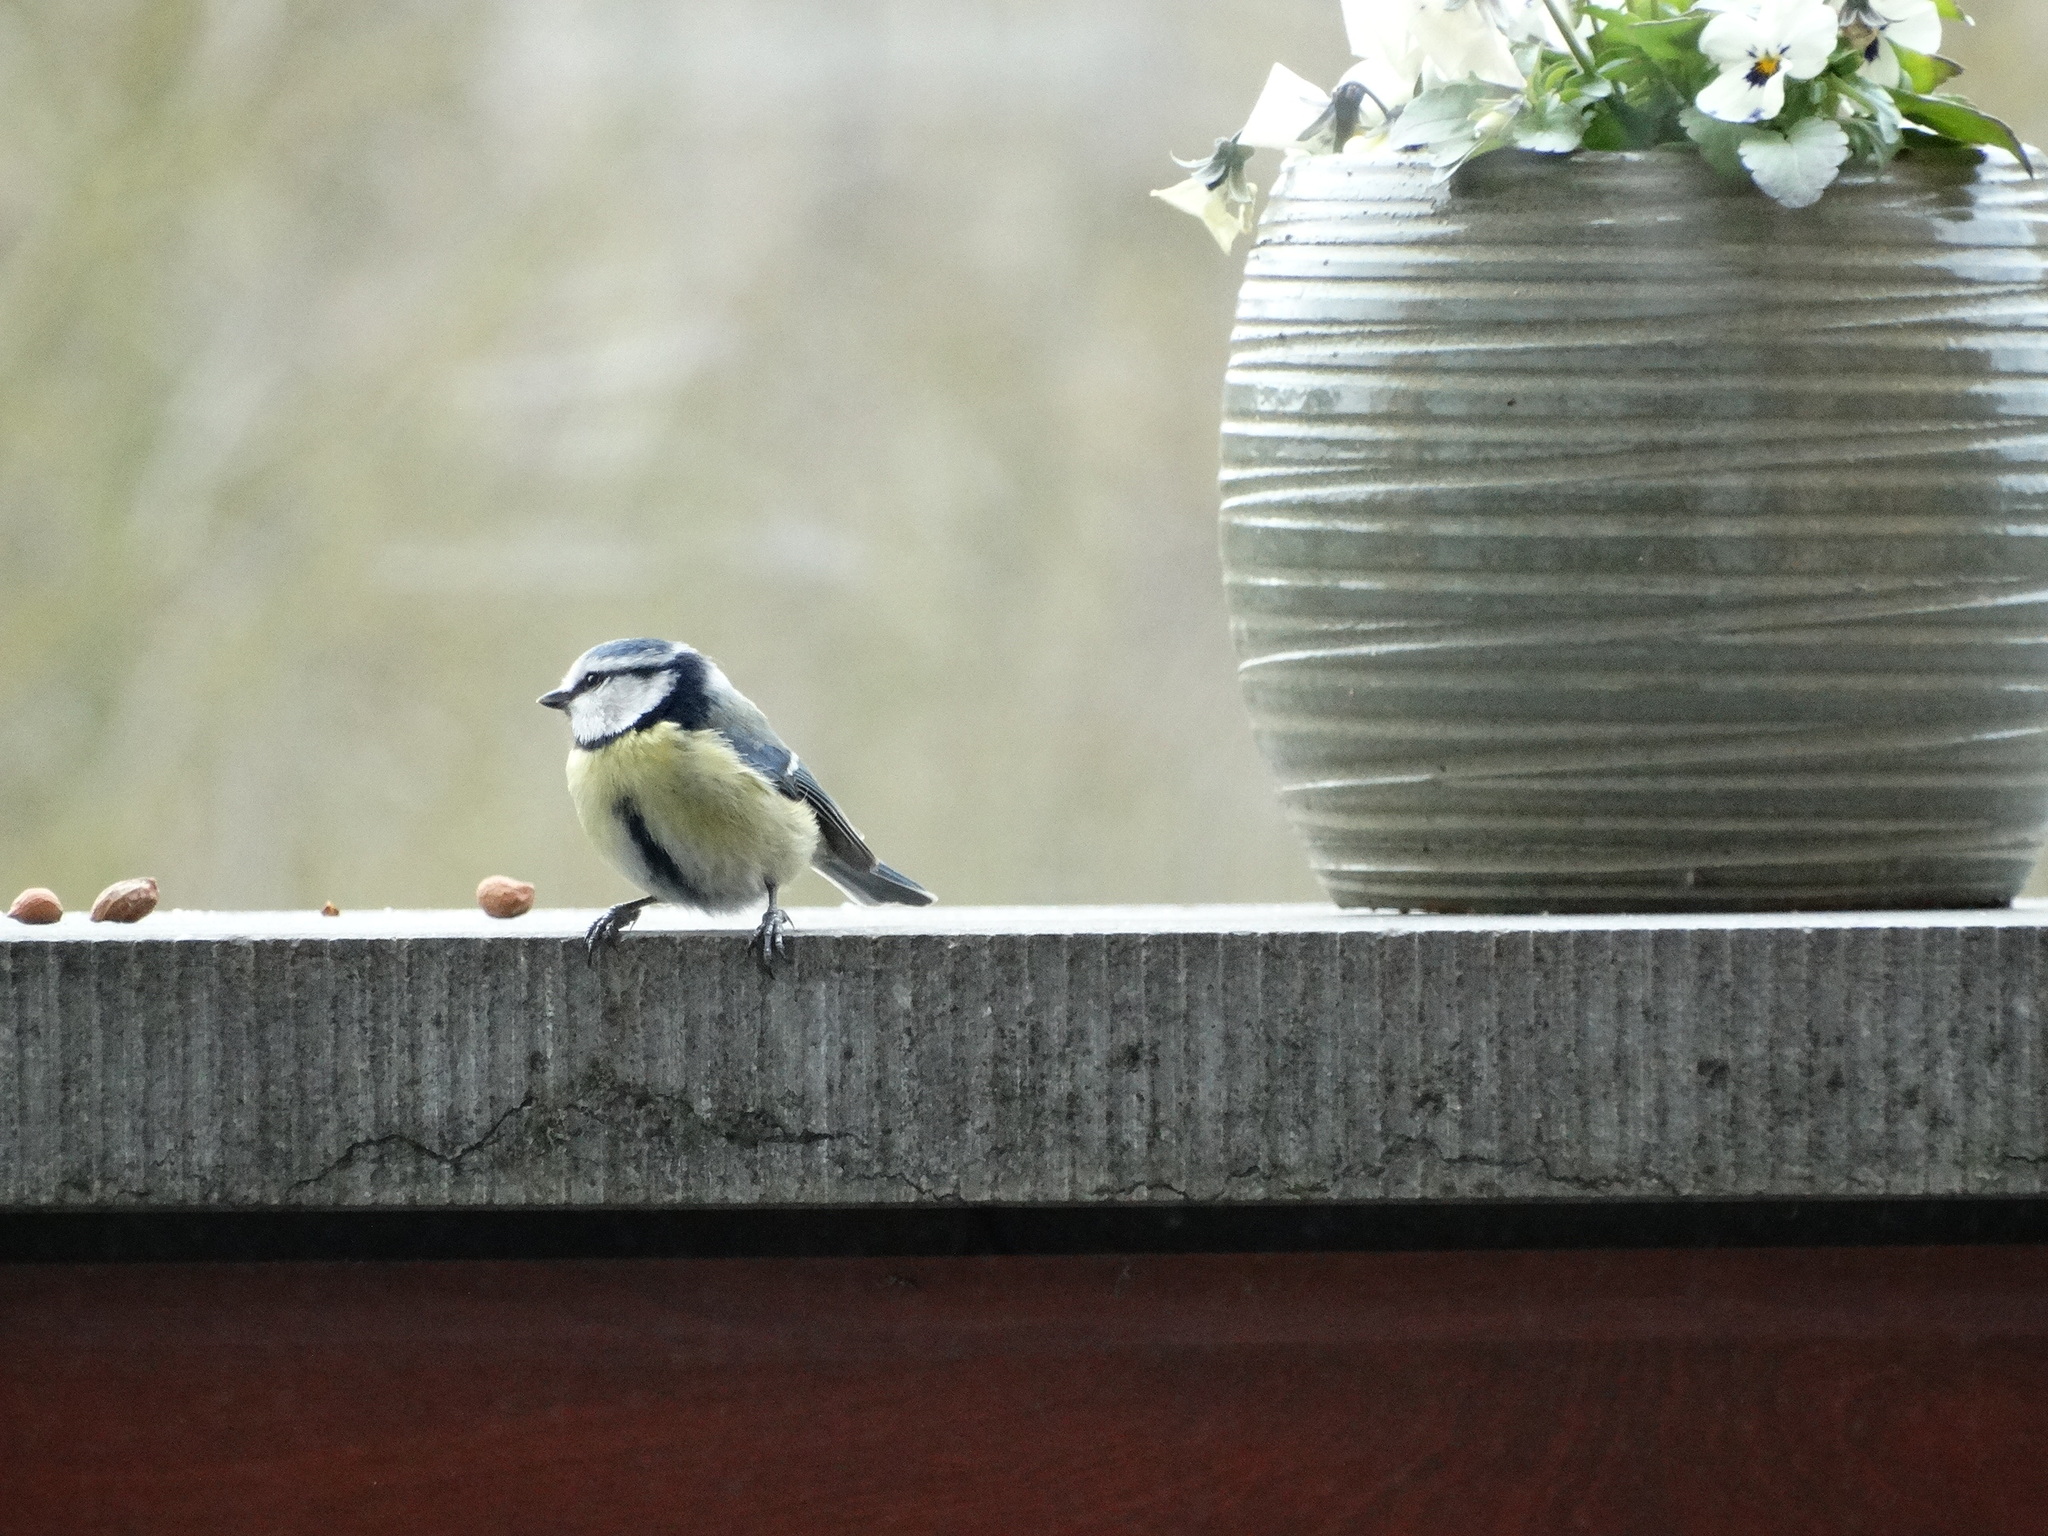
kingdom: Animalia
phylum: Chordata
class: Aves
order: Passeriformes
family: Paridae
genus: Cyanistes
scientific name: Cyanistes caeruleus
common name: Eurasian blue tit
